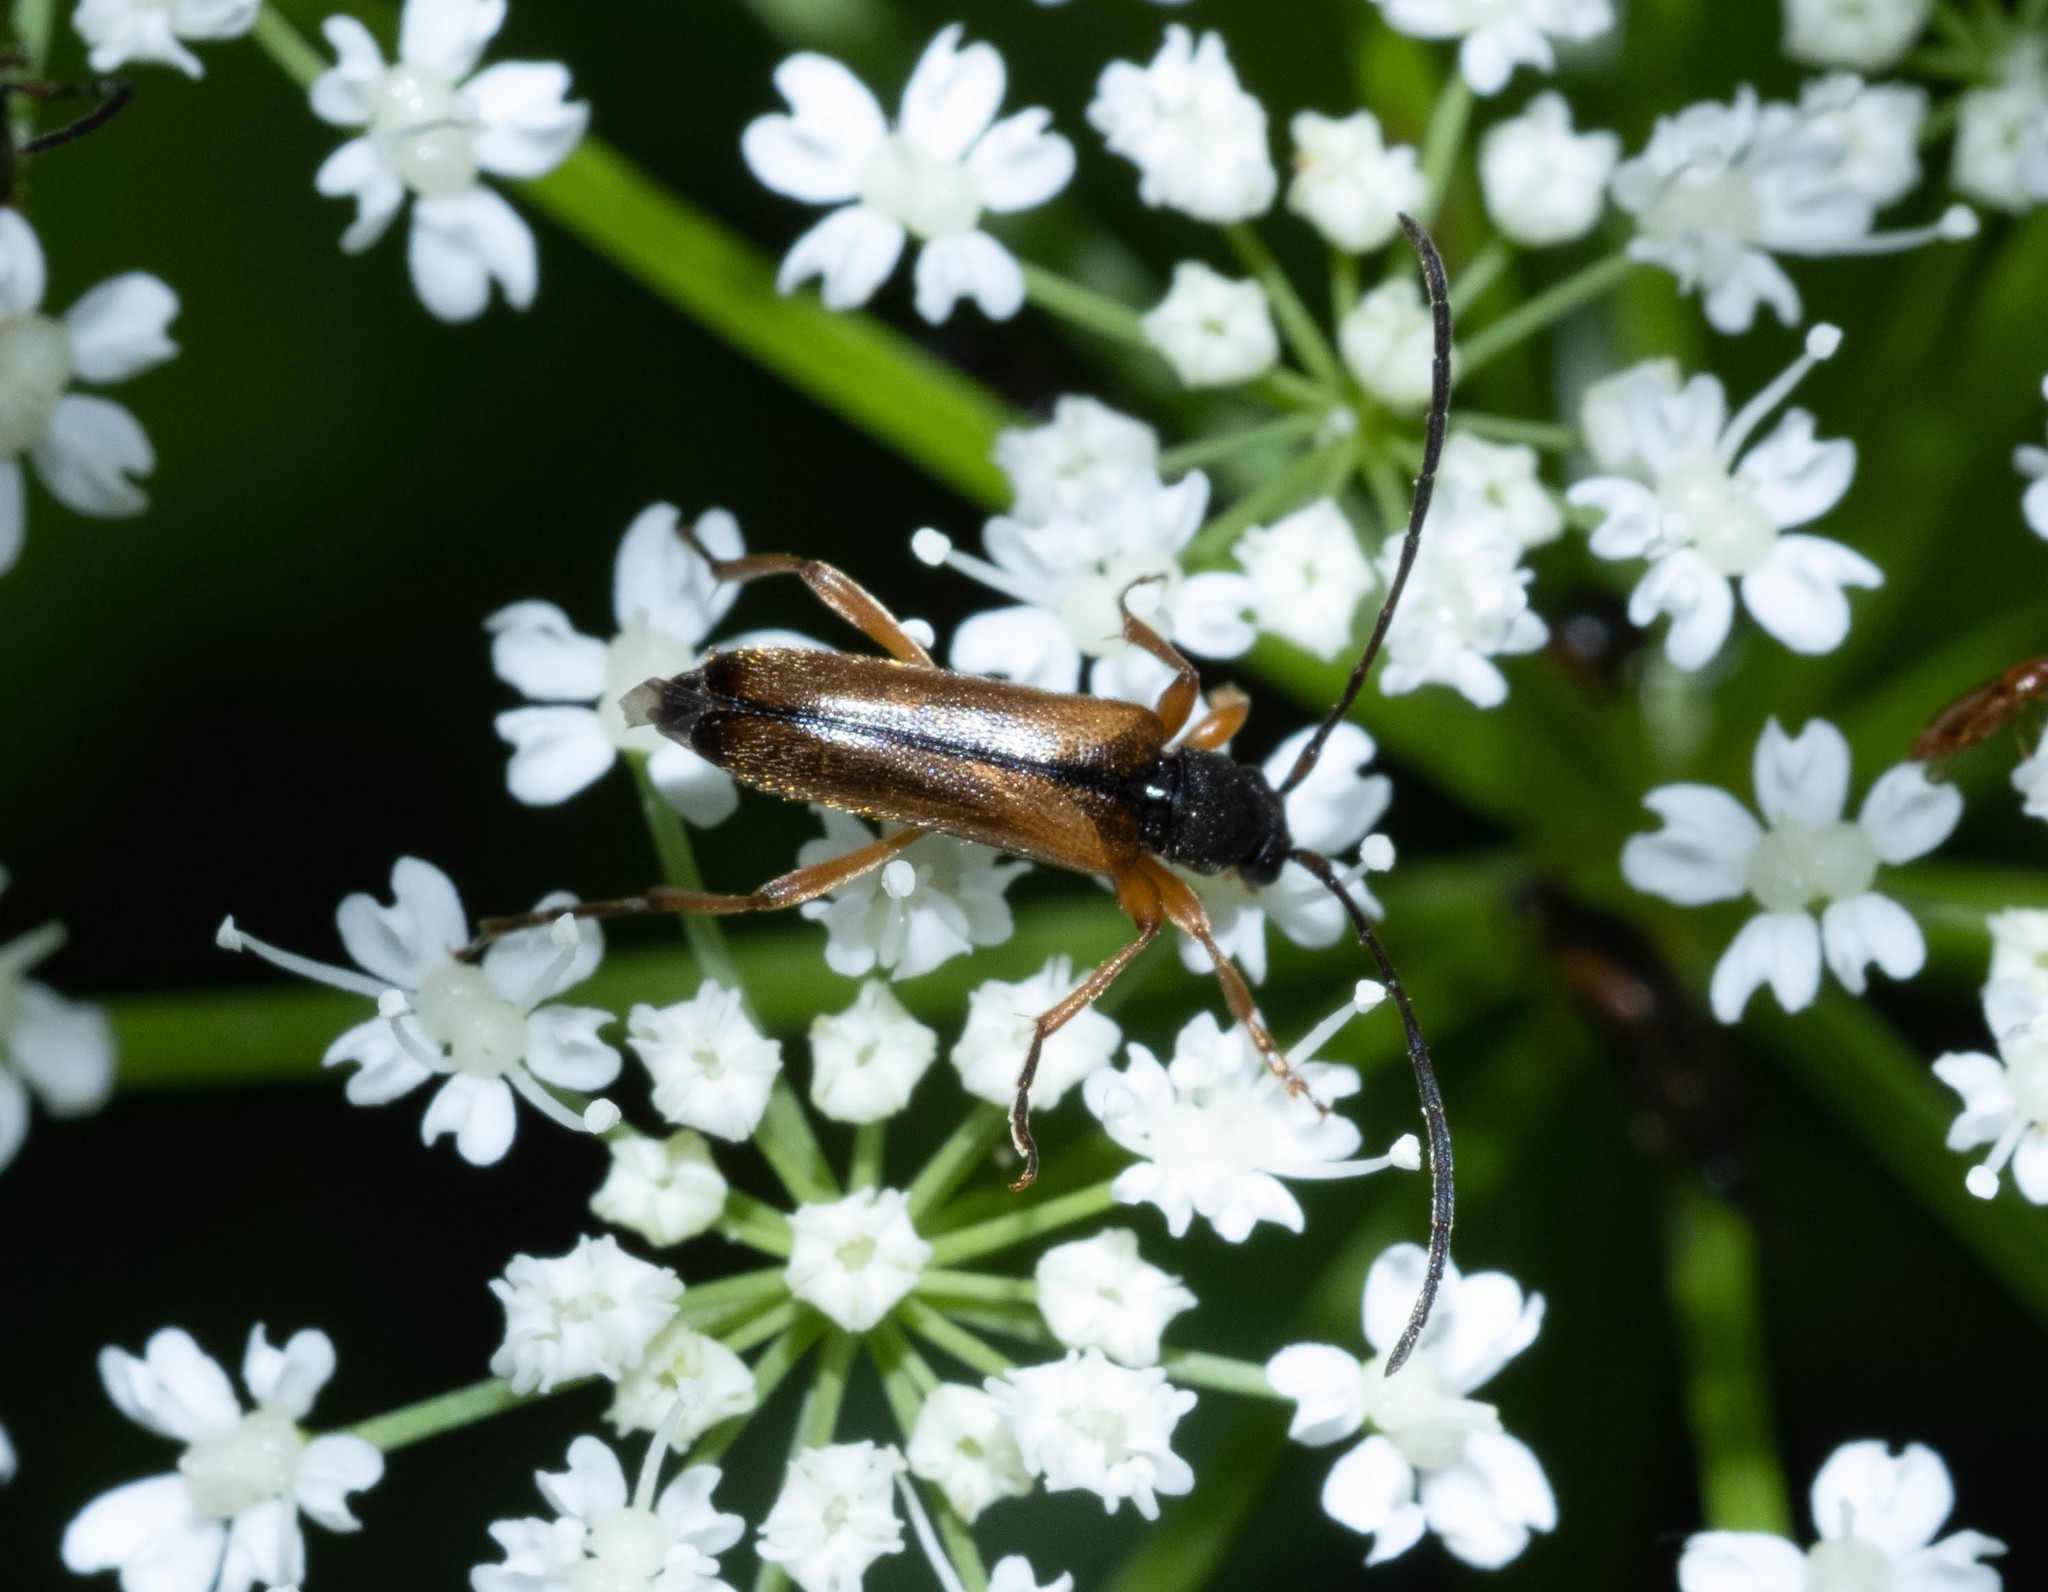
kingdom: Animalia
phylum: Arthropoda
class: Insecta
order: Coleoptera
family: Cerambycidae
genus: Alosterna
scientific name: Alosterna tabacicolor
